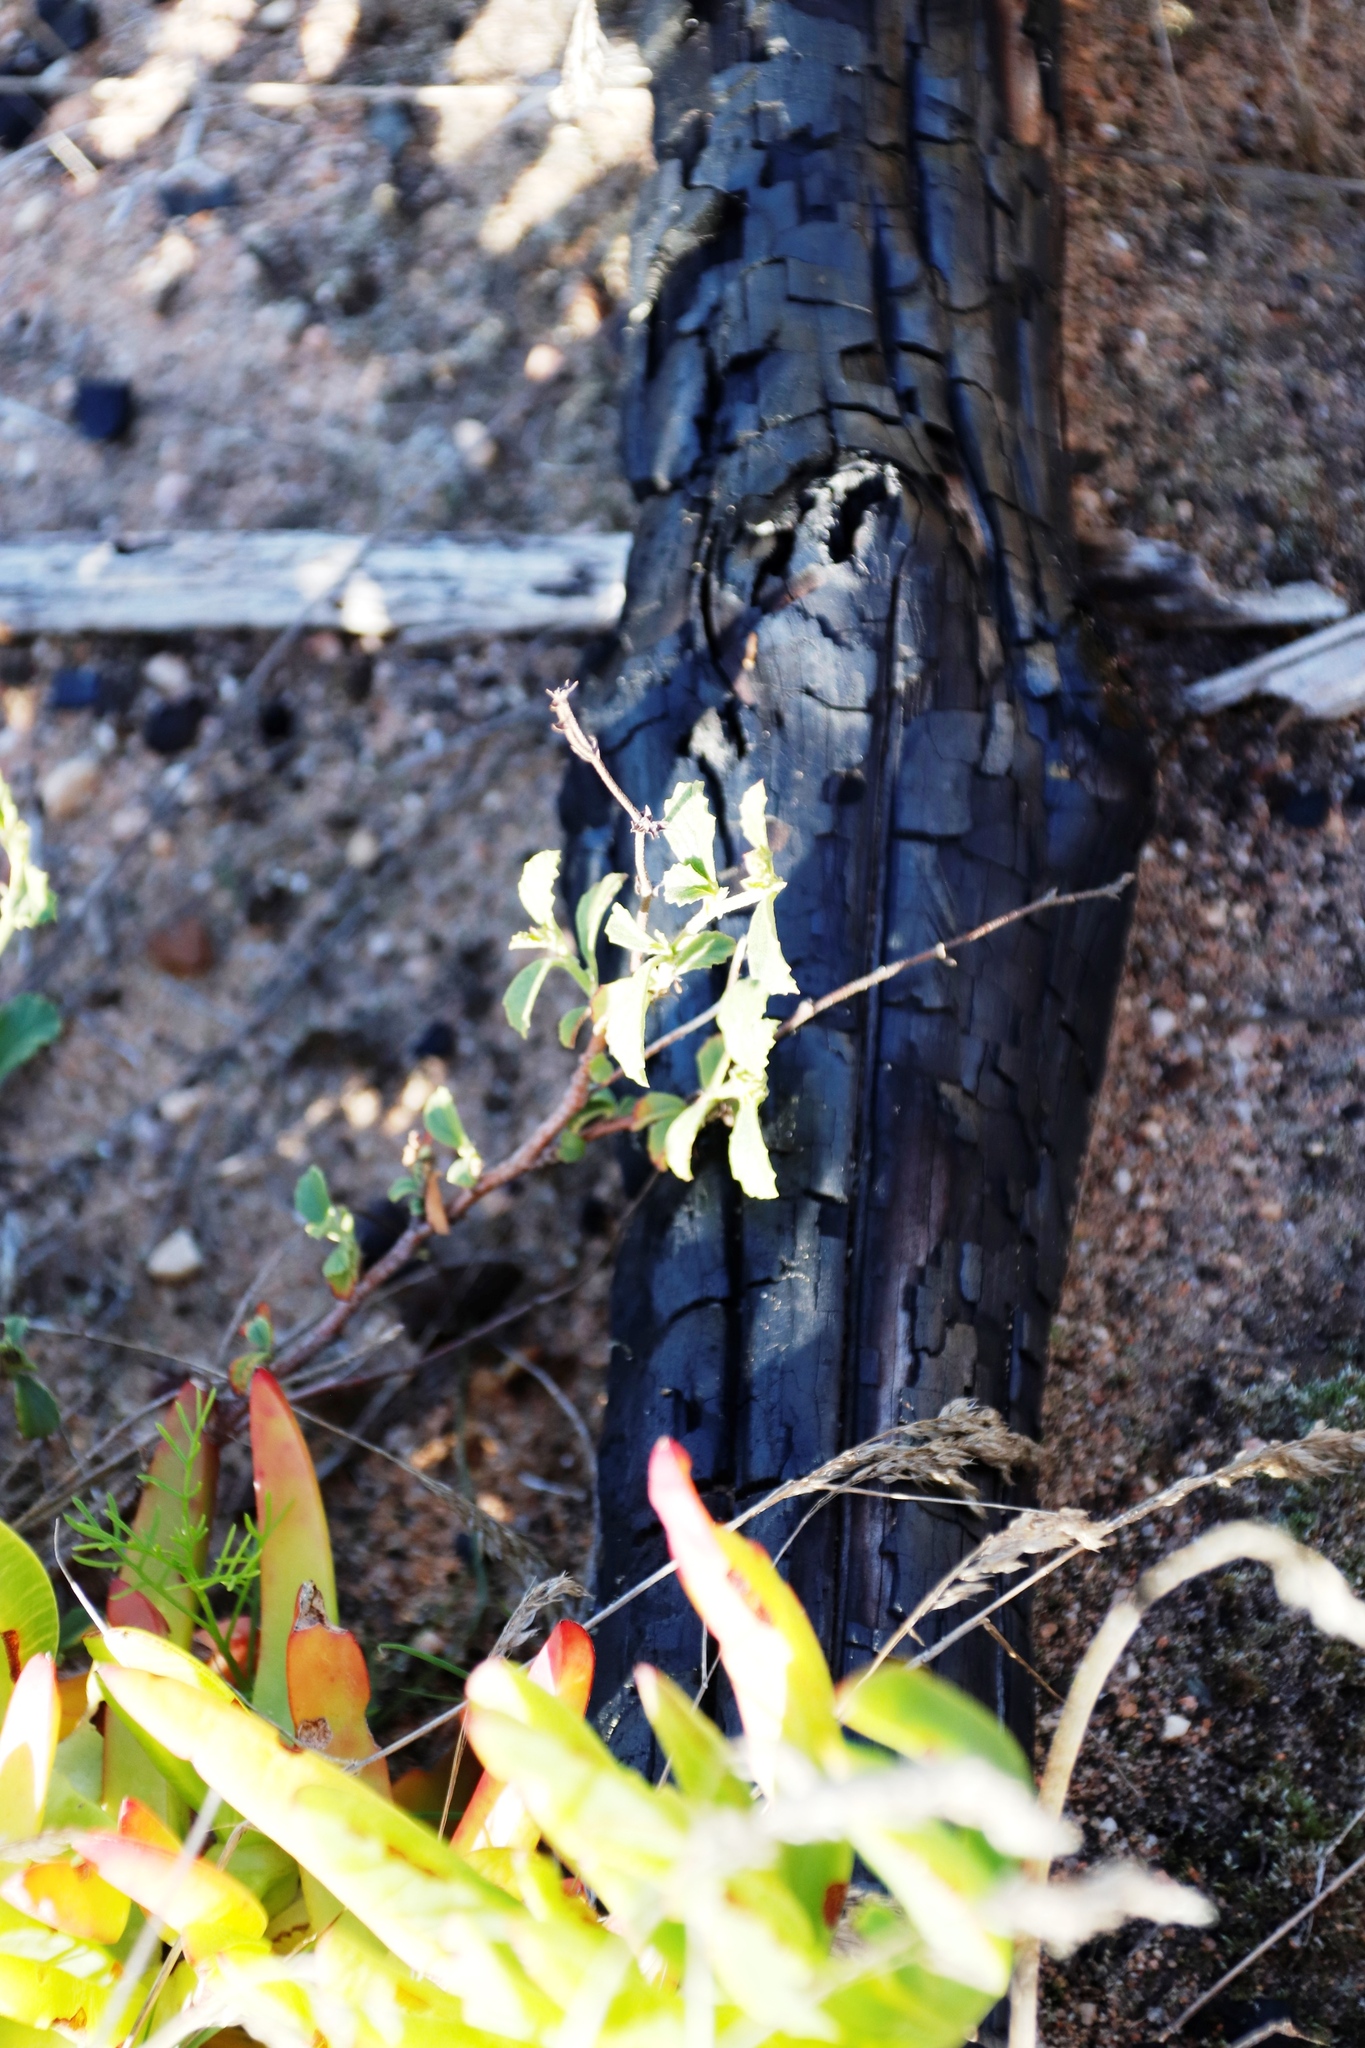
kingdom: Plantae
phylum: Tracheophyta
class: Magnoliopsida
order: Malvales
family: Malvaceae
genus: Hermannia
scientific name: Hermannia multiflora
